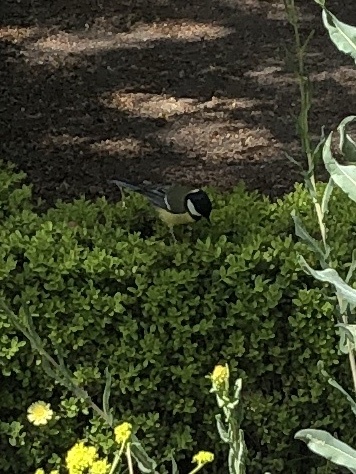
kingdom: Animalia
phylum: Chordata
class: Aves
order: Passeriformes
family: Paridae
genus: Parus
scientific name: Parus major
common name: Great tit
